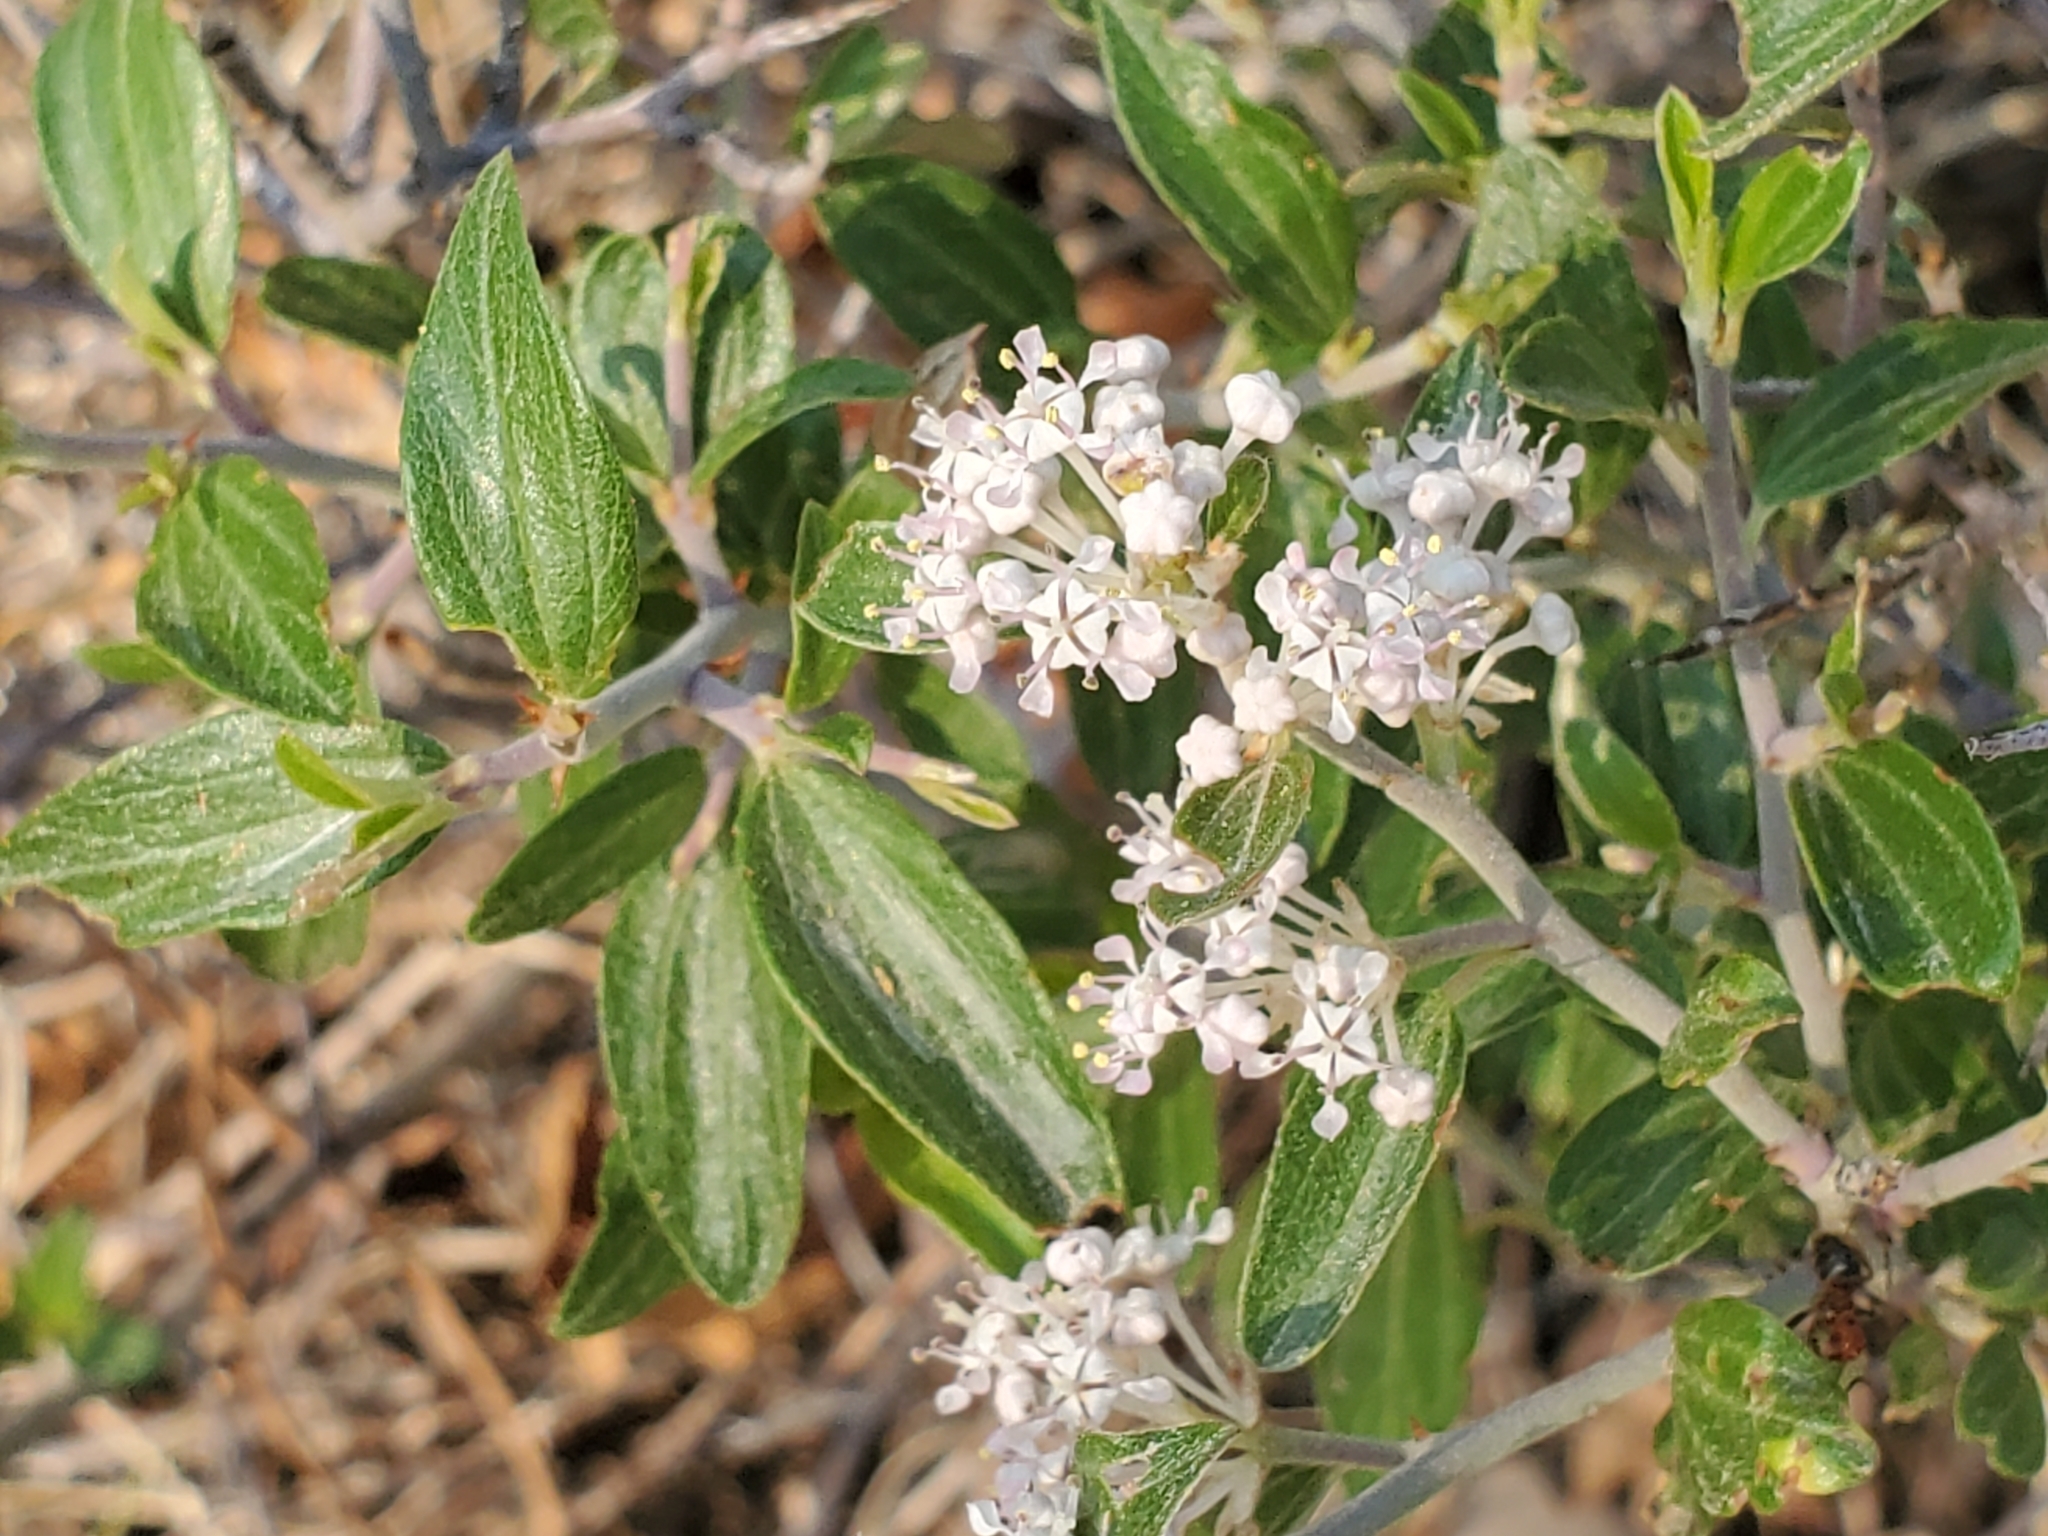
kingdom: Plantae
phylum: Tracheophyta
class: Magnoliopsida
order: Rosales
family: Rhamnaceae
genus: Ceanothus
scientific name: Ceanothus fendleri
